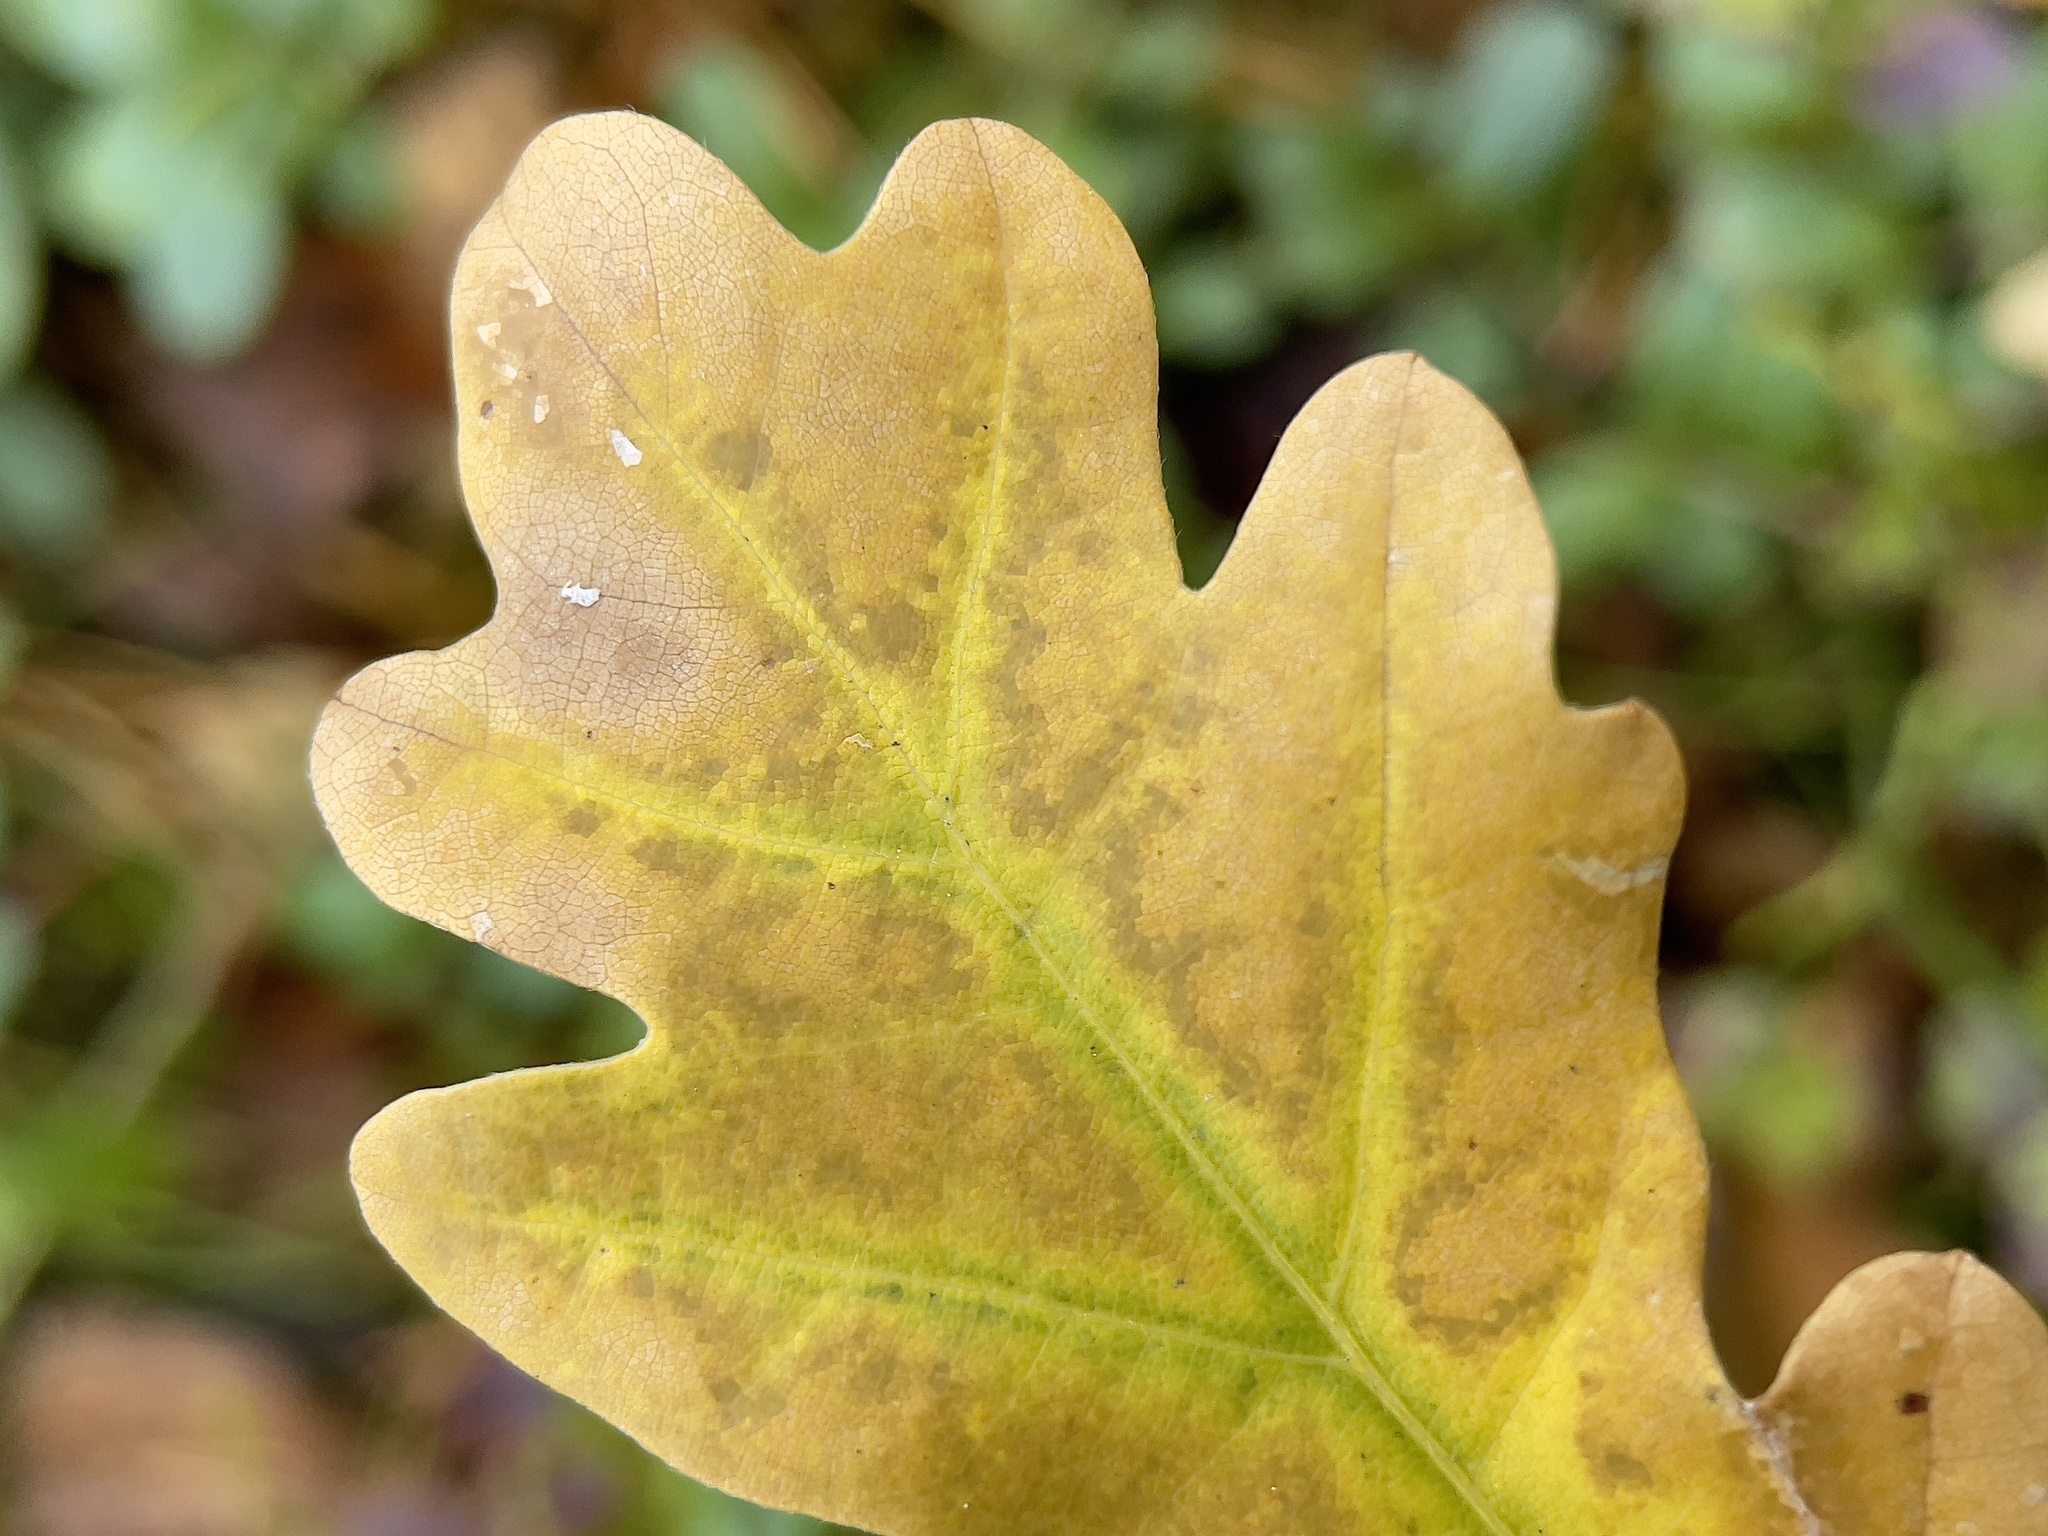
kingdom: Plantae
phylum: Tracheophyta
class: Magnoliopsida
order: Fagales
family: Fagaceae
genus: Quercus
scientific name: Quercus robur
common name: Pedunculate oak
